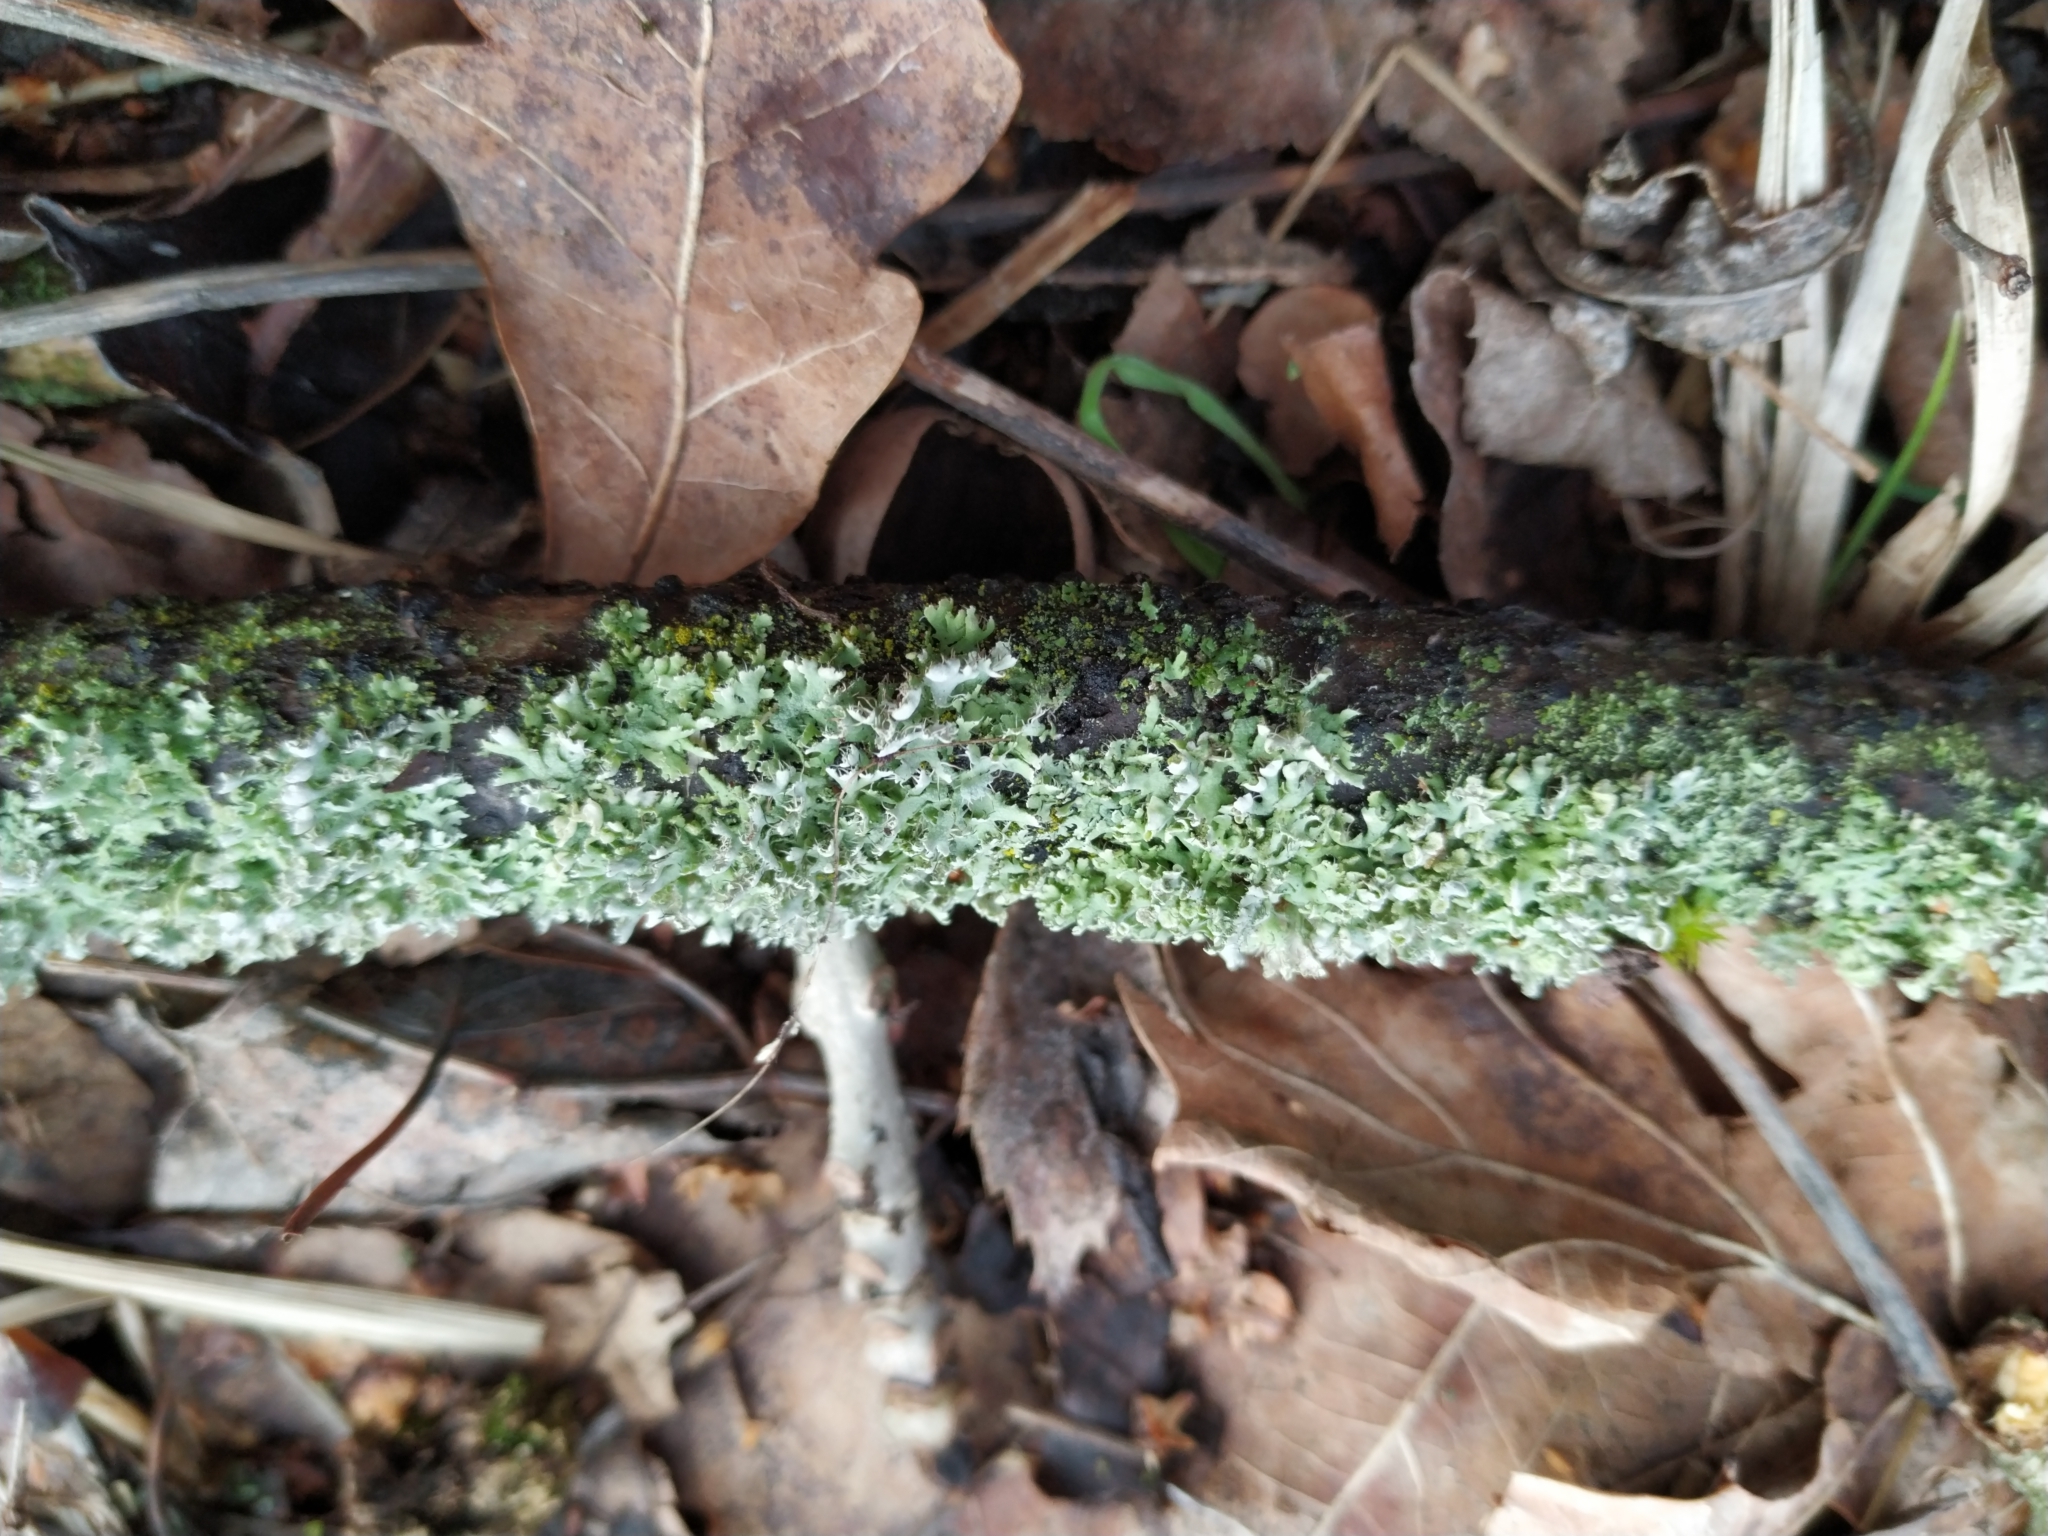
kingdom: Fungi
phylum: Ascomycota
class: Lecanoromycetes
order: Caliciales
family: Physciaceae
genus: Physcia
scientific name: Physcia adscendens
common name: Hooded rosette lichen
